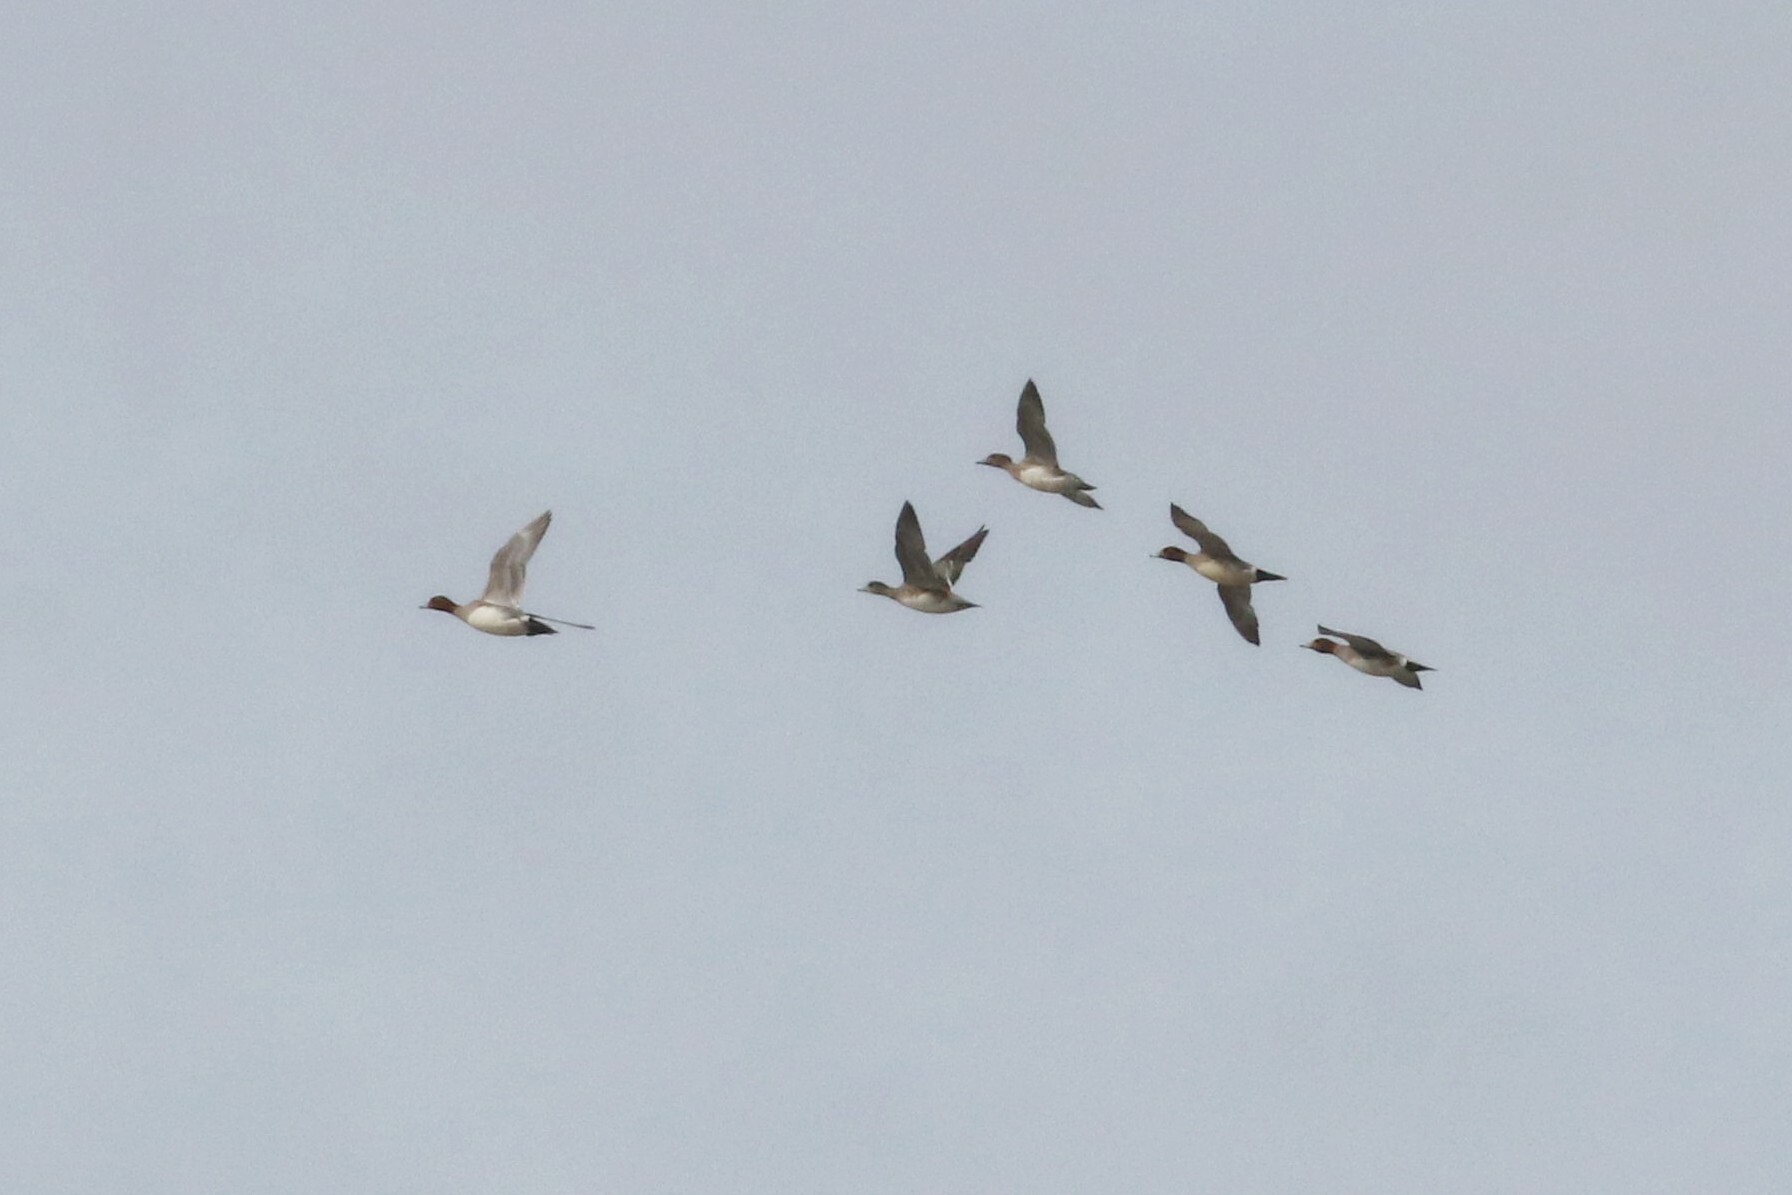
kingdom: Animalia
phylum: Chordata
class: Aves
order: Anseriformes
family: Anatidae
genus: Mareca
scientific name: Mareca penelope
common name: Eurasian wigeon
